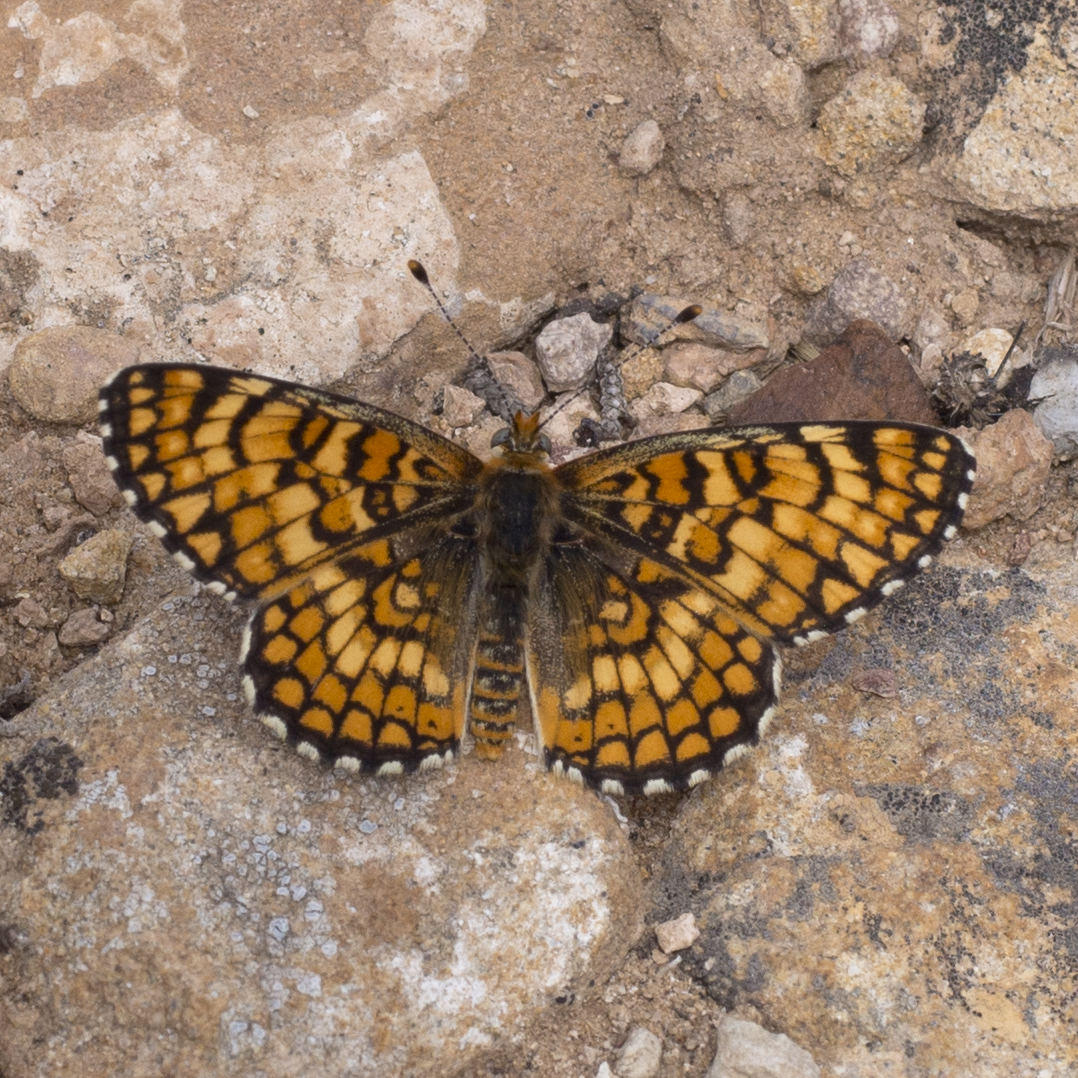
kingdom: Animalia
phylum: Arthropoda
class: Insecta
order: Lepidoptera
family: Nymphalidae
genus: Poladryas
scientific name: Poladryas minuta
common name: Dotted checkerspot
